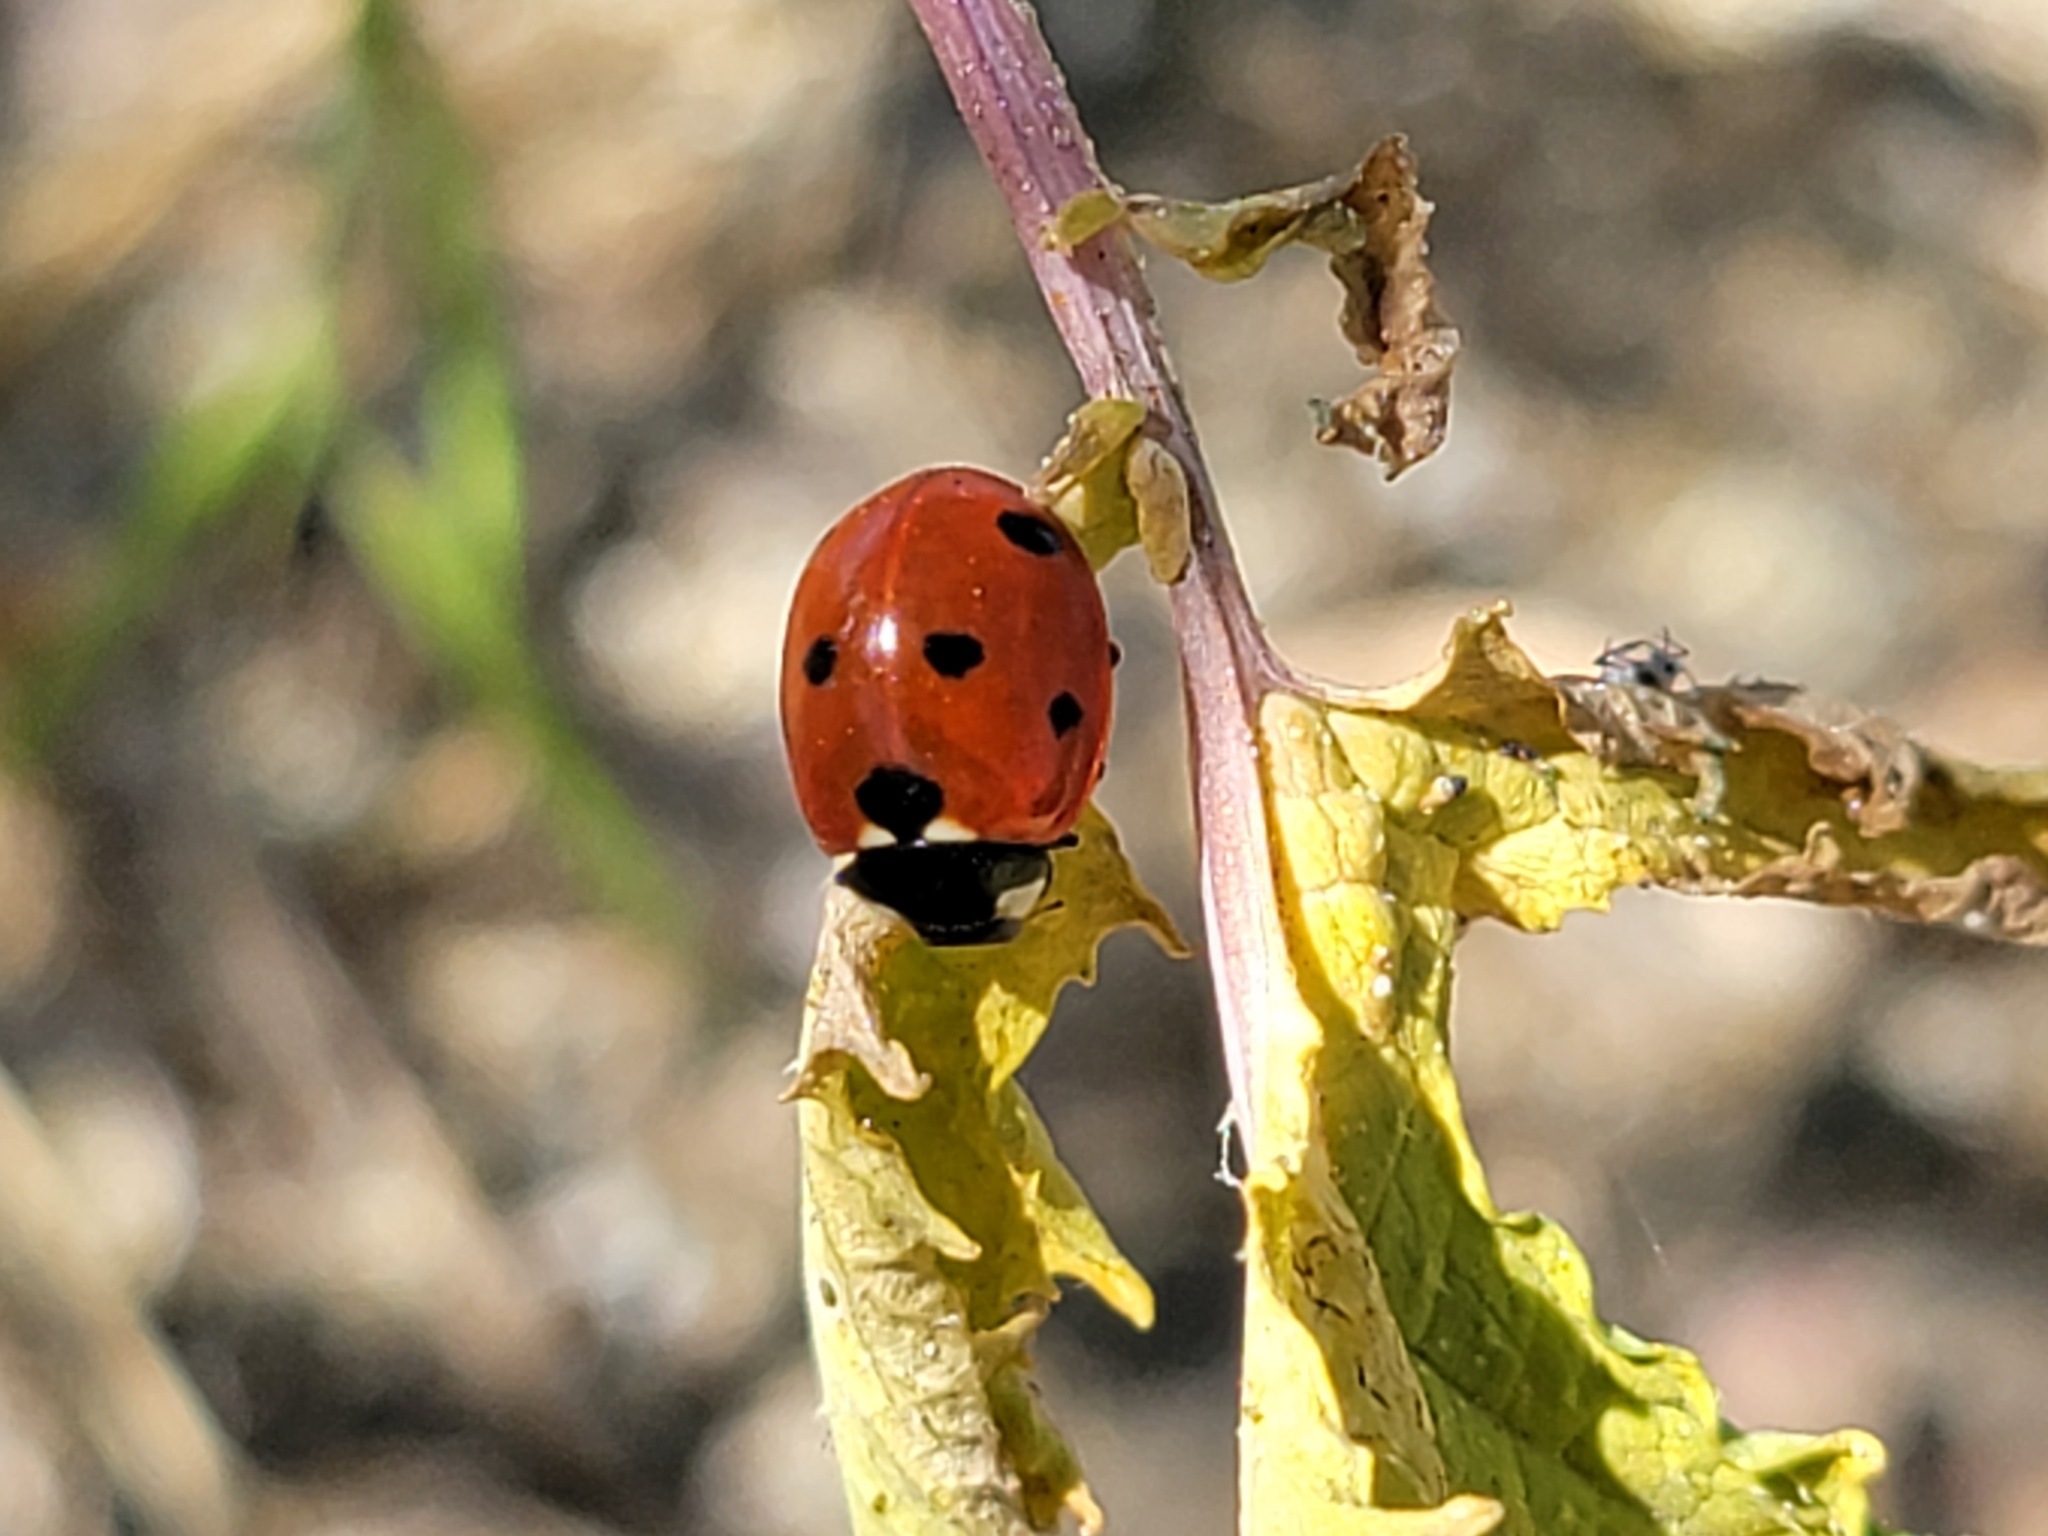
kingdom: Animalia
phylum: Arthropoda
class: Insecta
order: Coleoptera
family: Coccinellidae
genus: Coccinella
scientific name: Coccinella septempunctata
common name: Sevenspotted lady beetle
